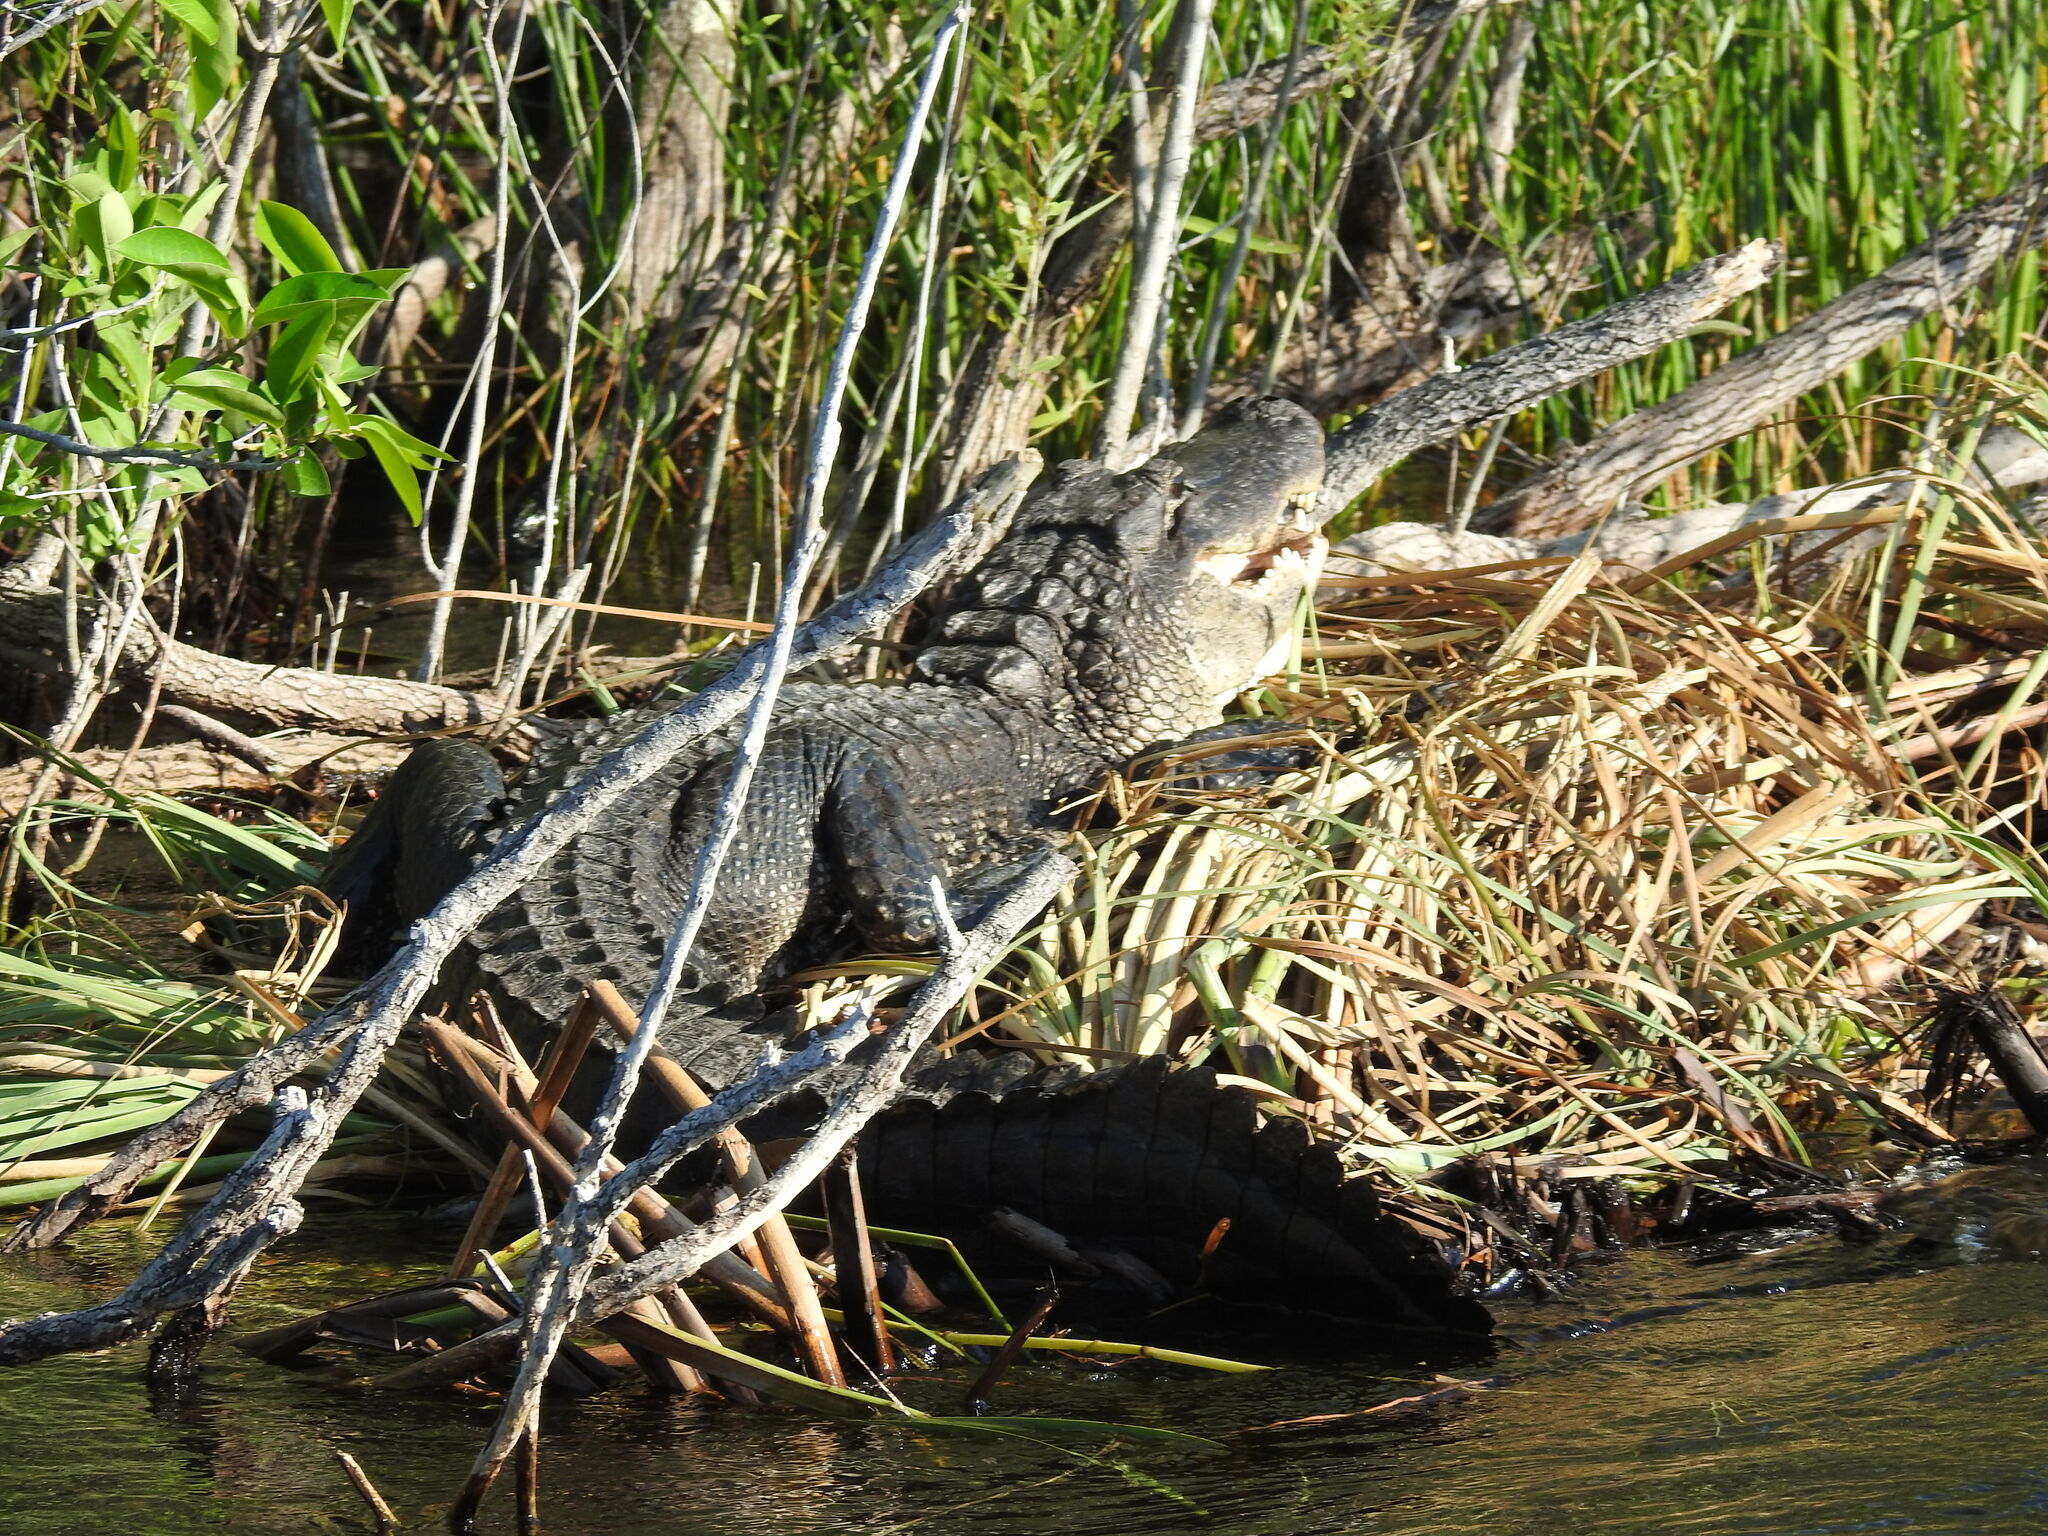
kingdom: Animalia
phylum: Chordata
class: Crocodylia
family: Alligatoridae
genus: Alligator
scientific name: Alligator mississippiensis
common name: American alligator
